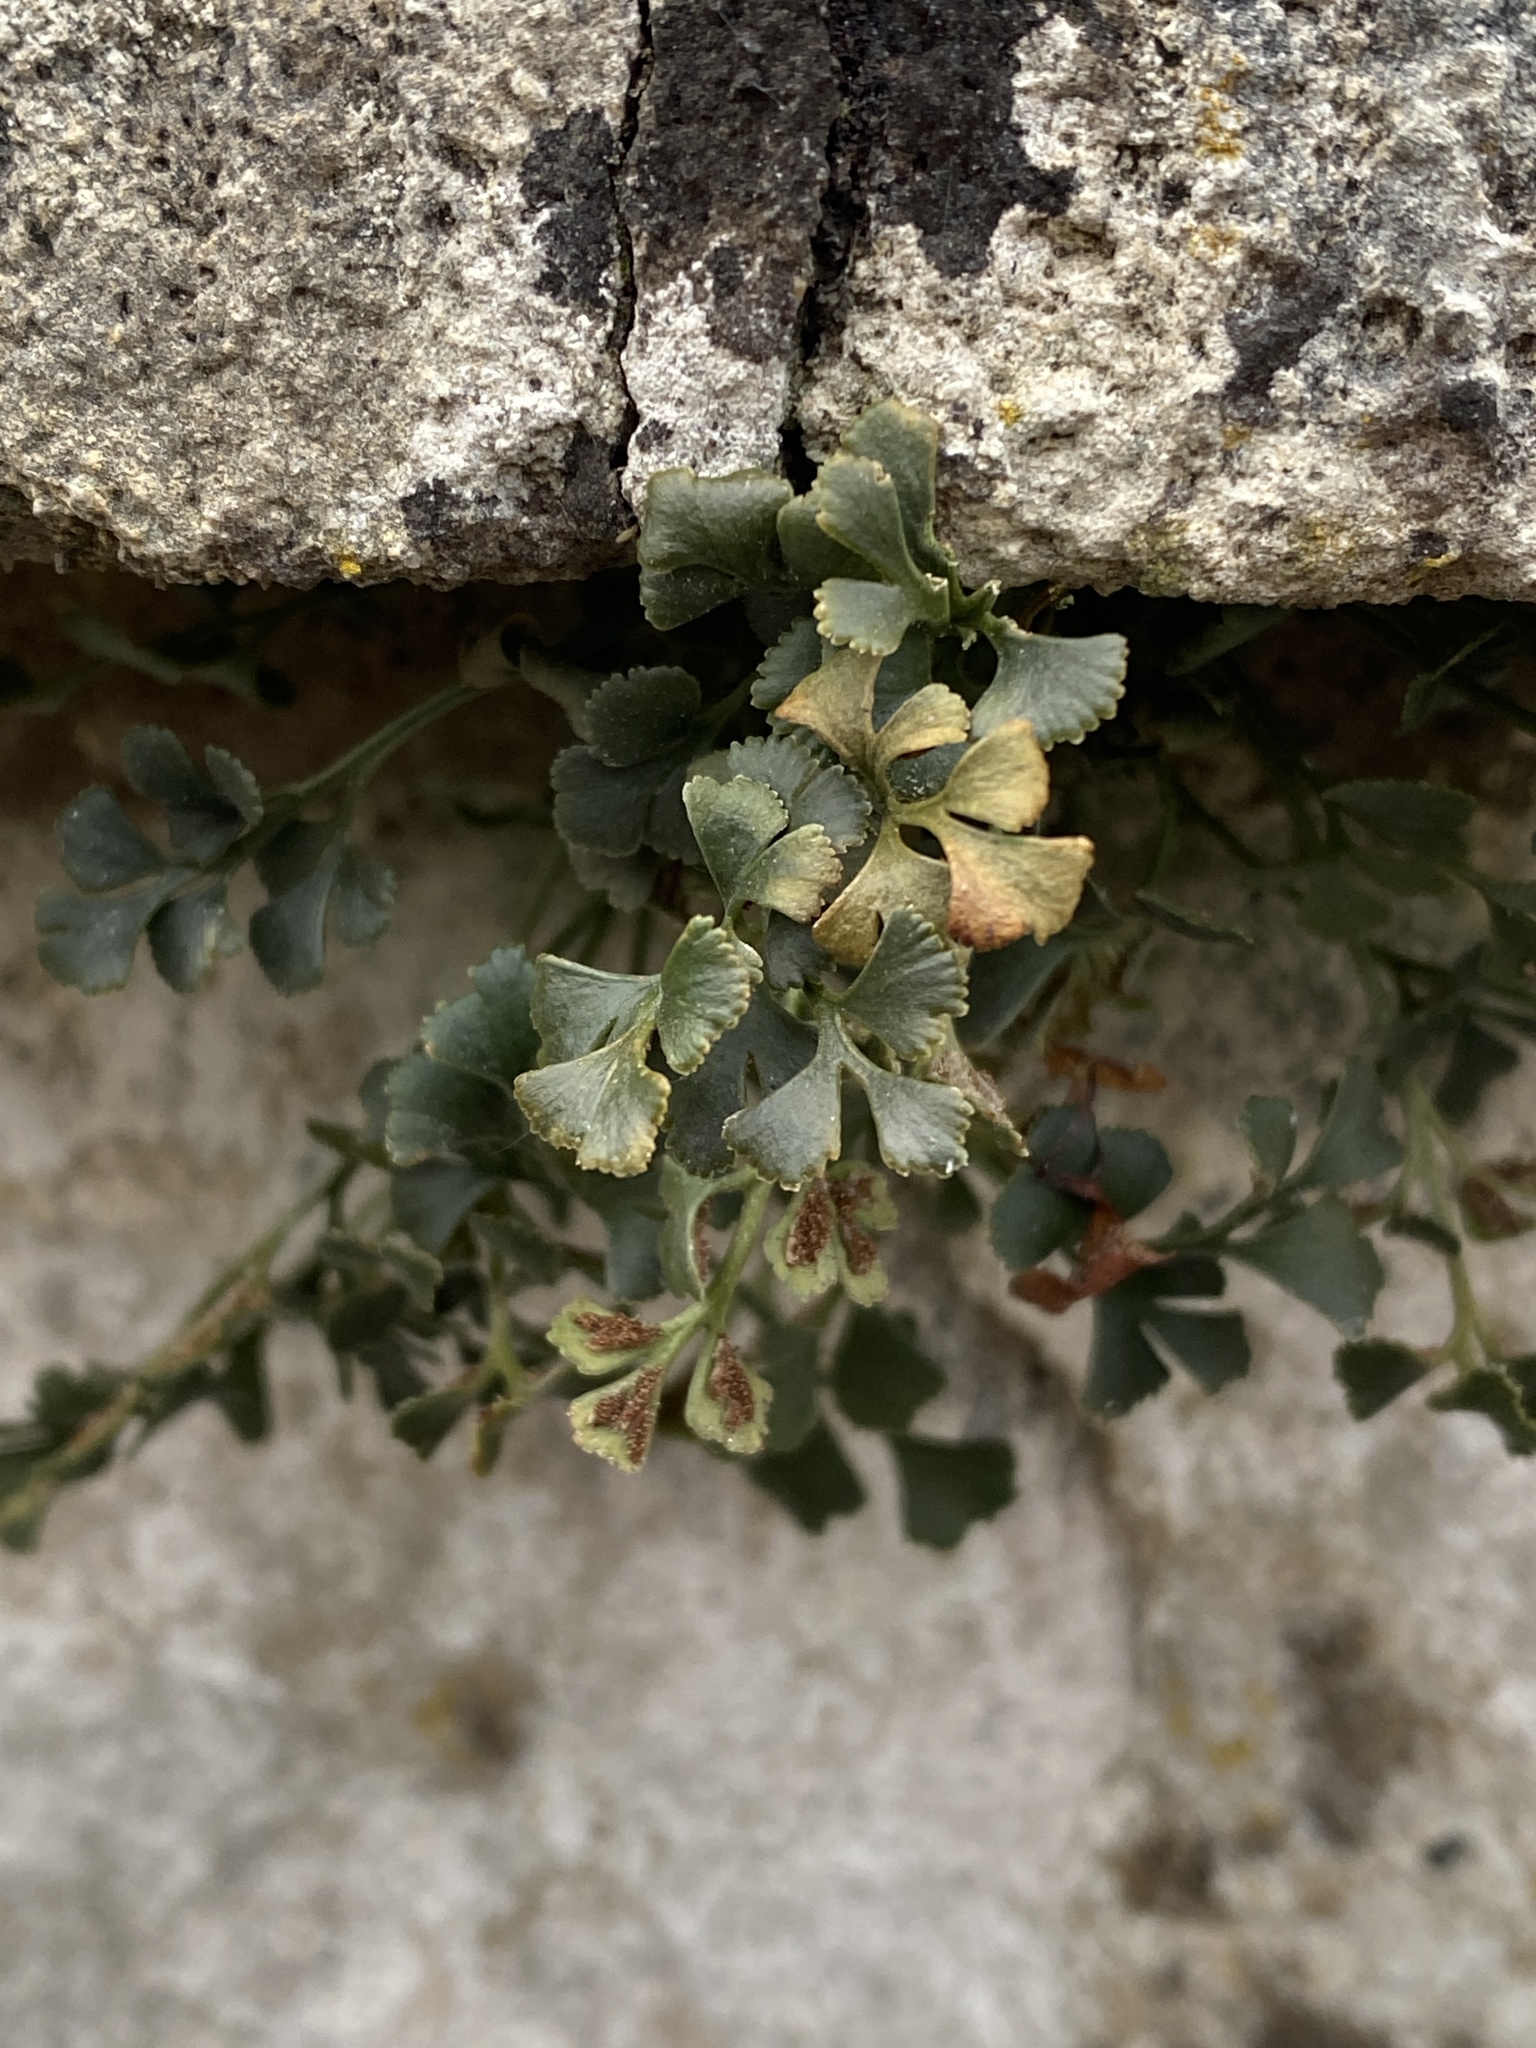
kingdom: Plantae
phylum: Tracheophyta
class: Polypodiopsida
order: Polypodiales
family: Aspleniaceae
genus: Asplenium
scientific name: Asplenium ruta-muraria
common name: Wall-rue
